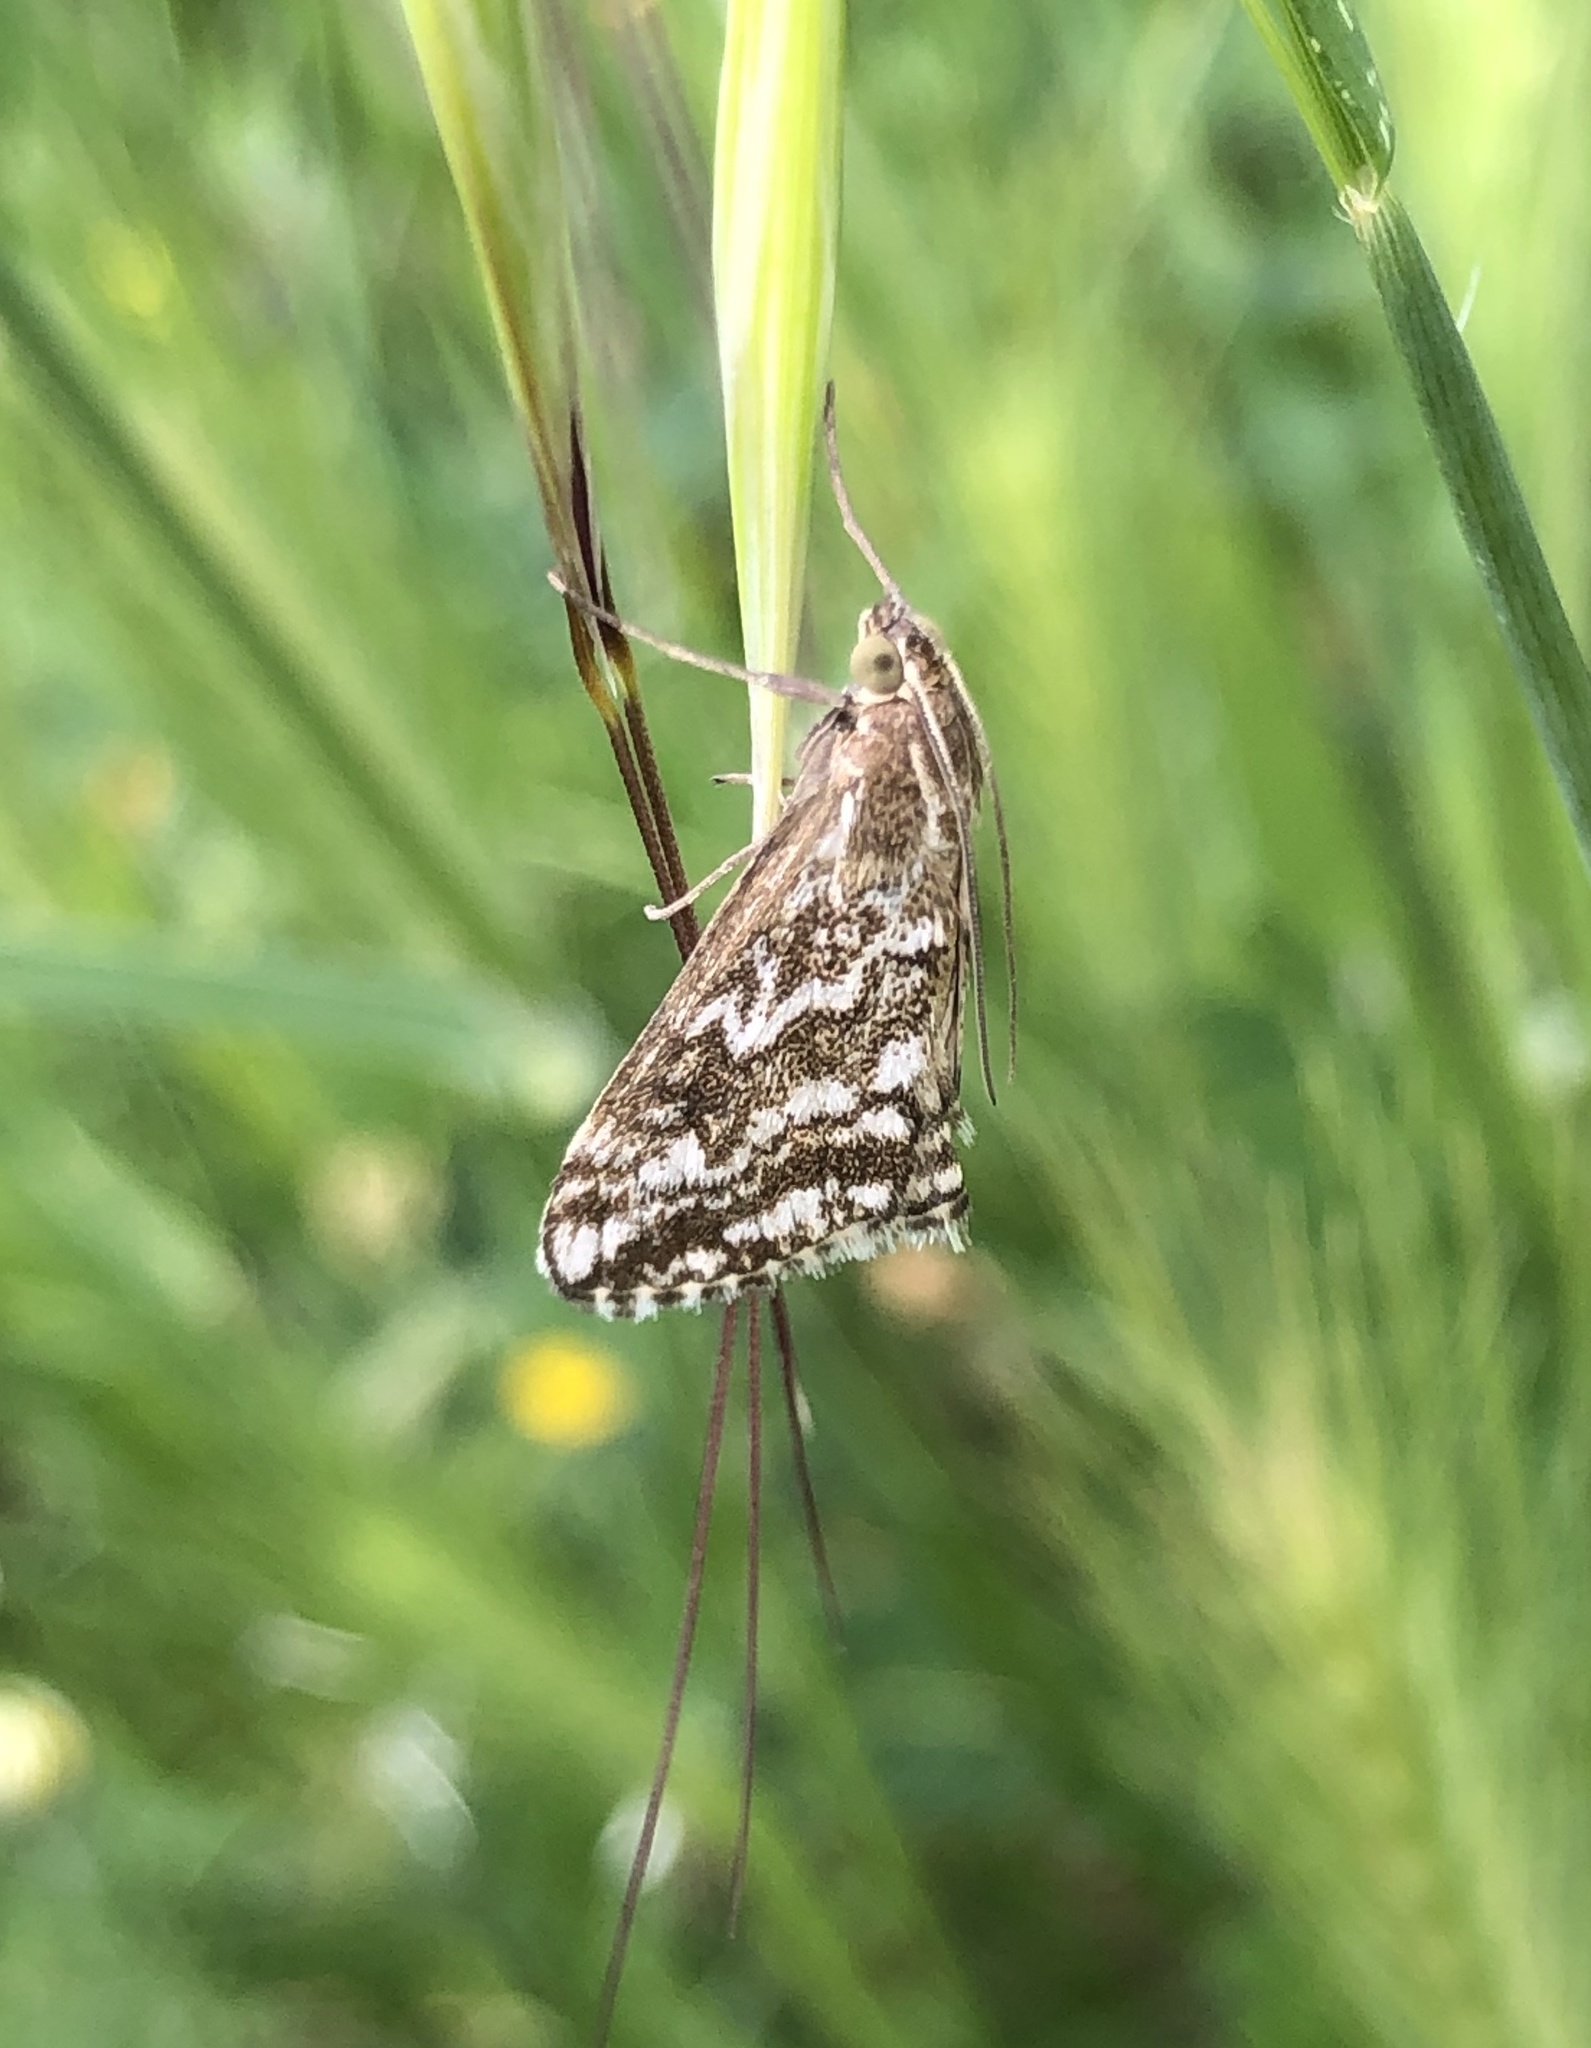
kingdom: Animalia
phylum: Arthropoda
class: Insecta
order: Lepidoptera
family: Crambidae
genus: Evergestis
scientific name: Evergestis frumentalis
